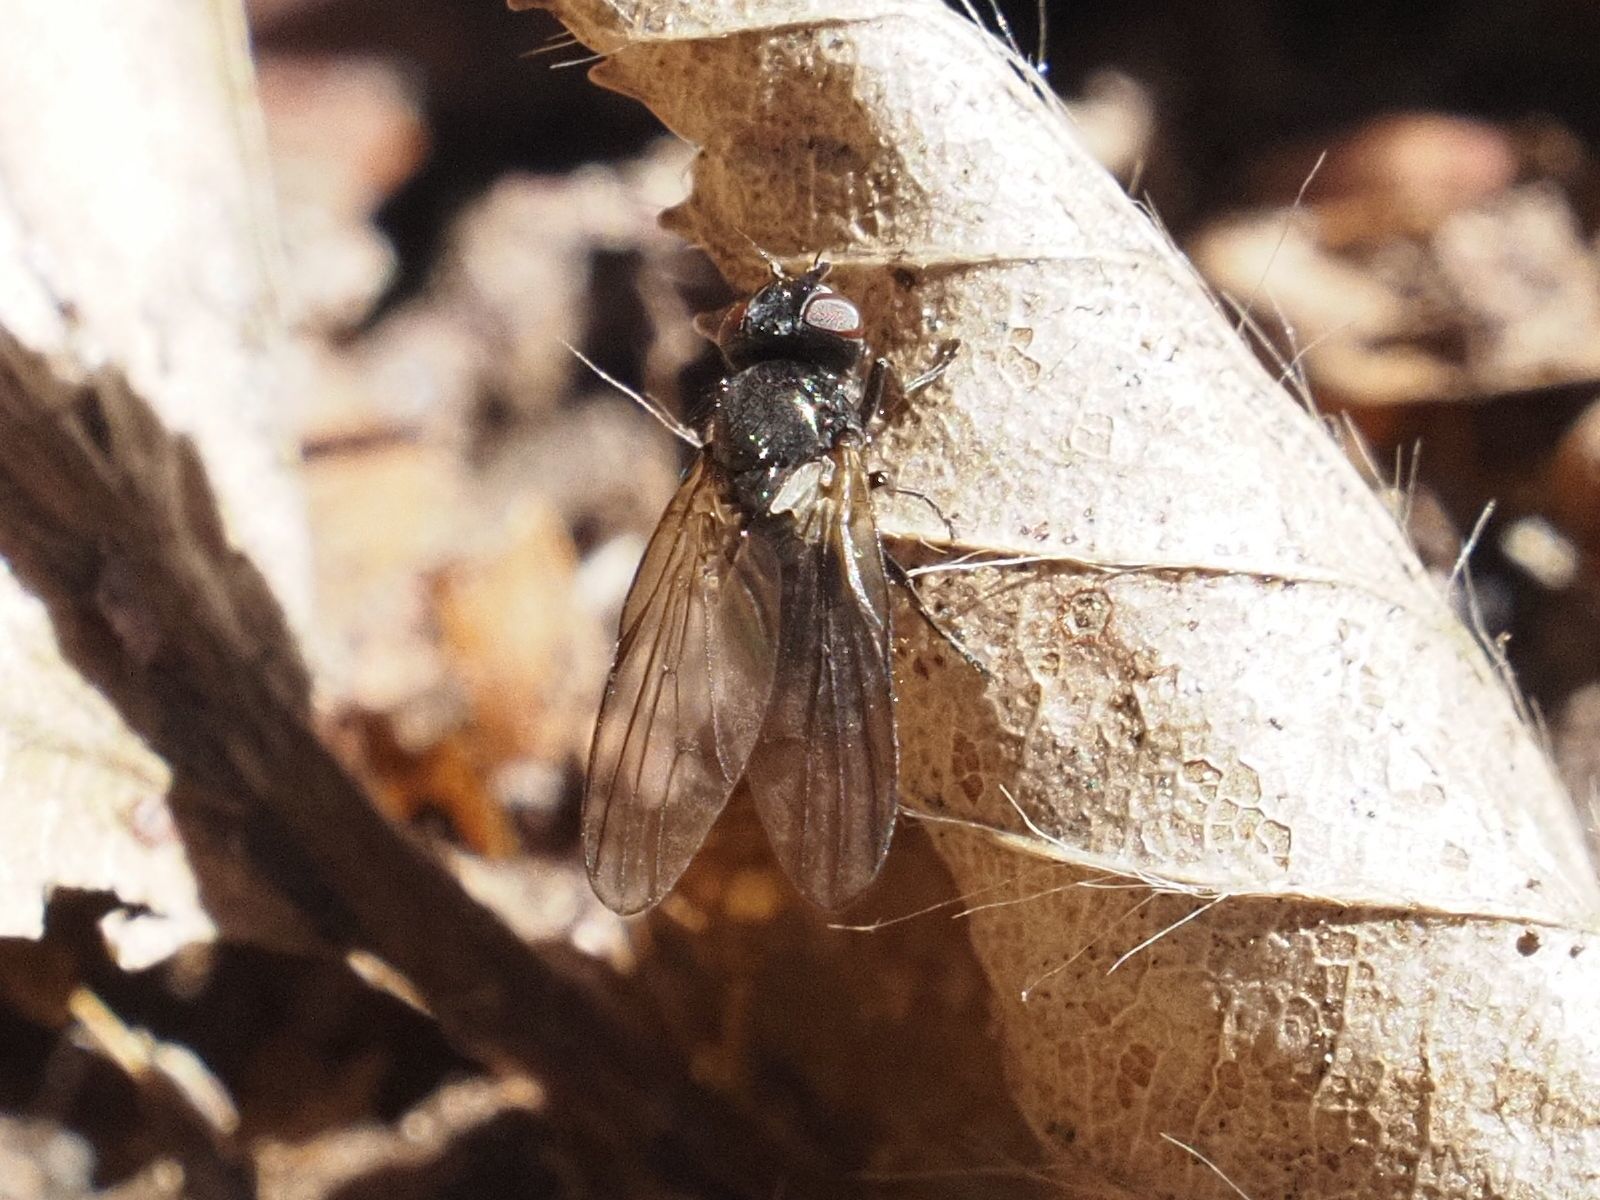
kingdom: Animalia
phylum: Arthropoda
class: Insecta
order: Diptera
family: Lonchaeidae
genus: Earomyia
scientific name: Earomyia lonchaeoides
